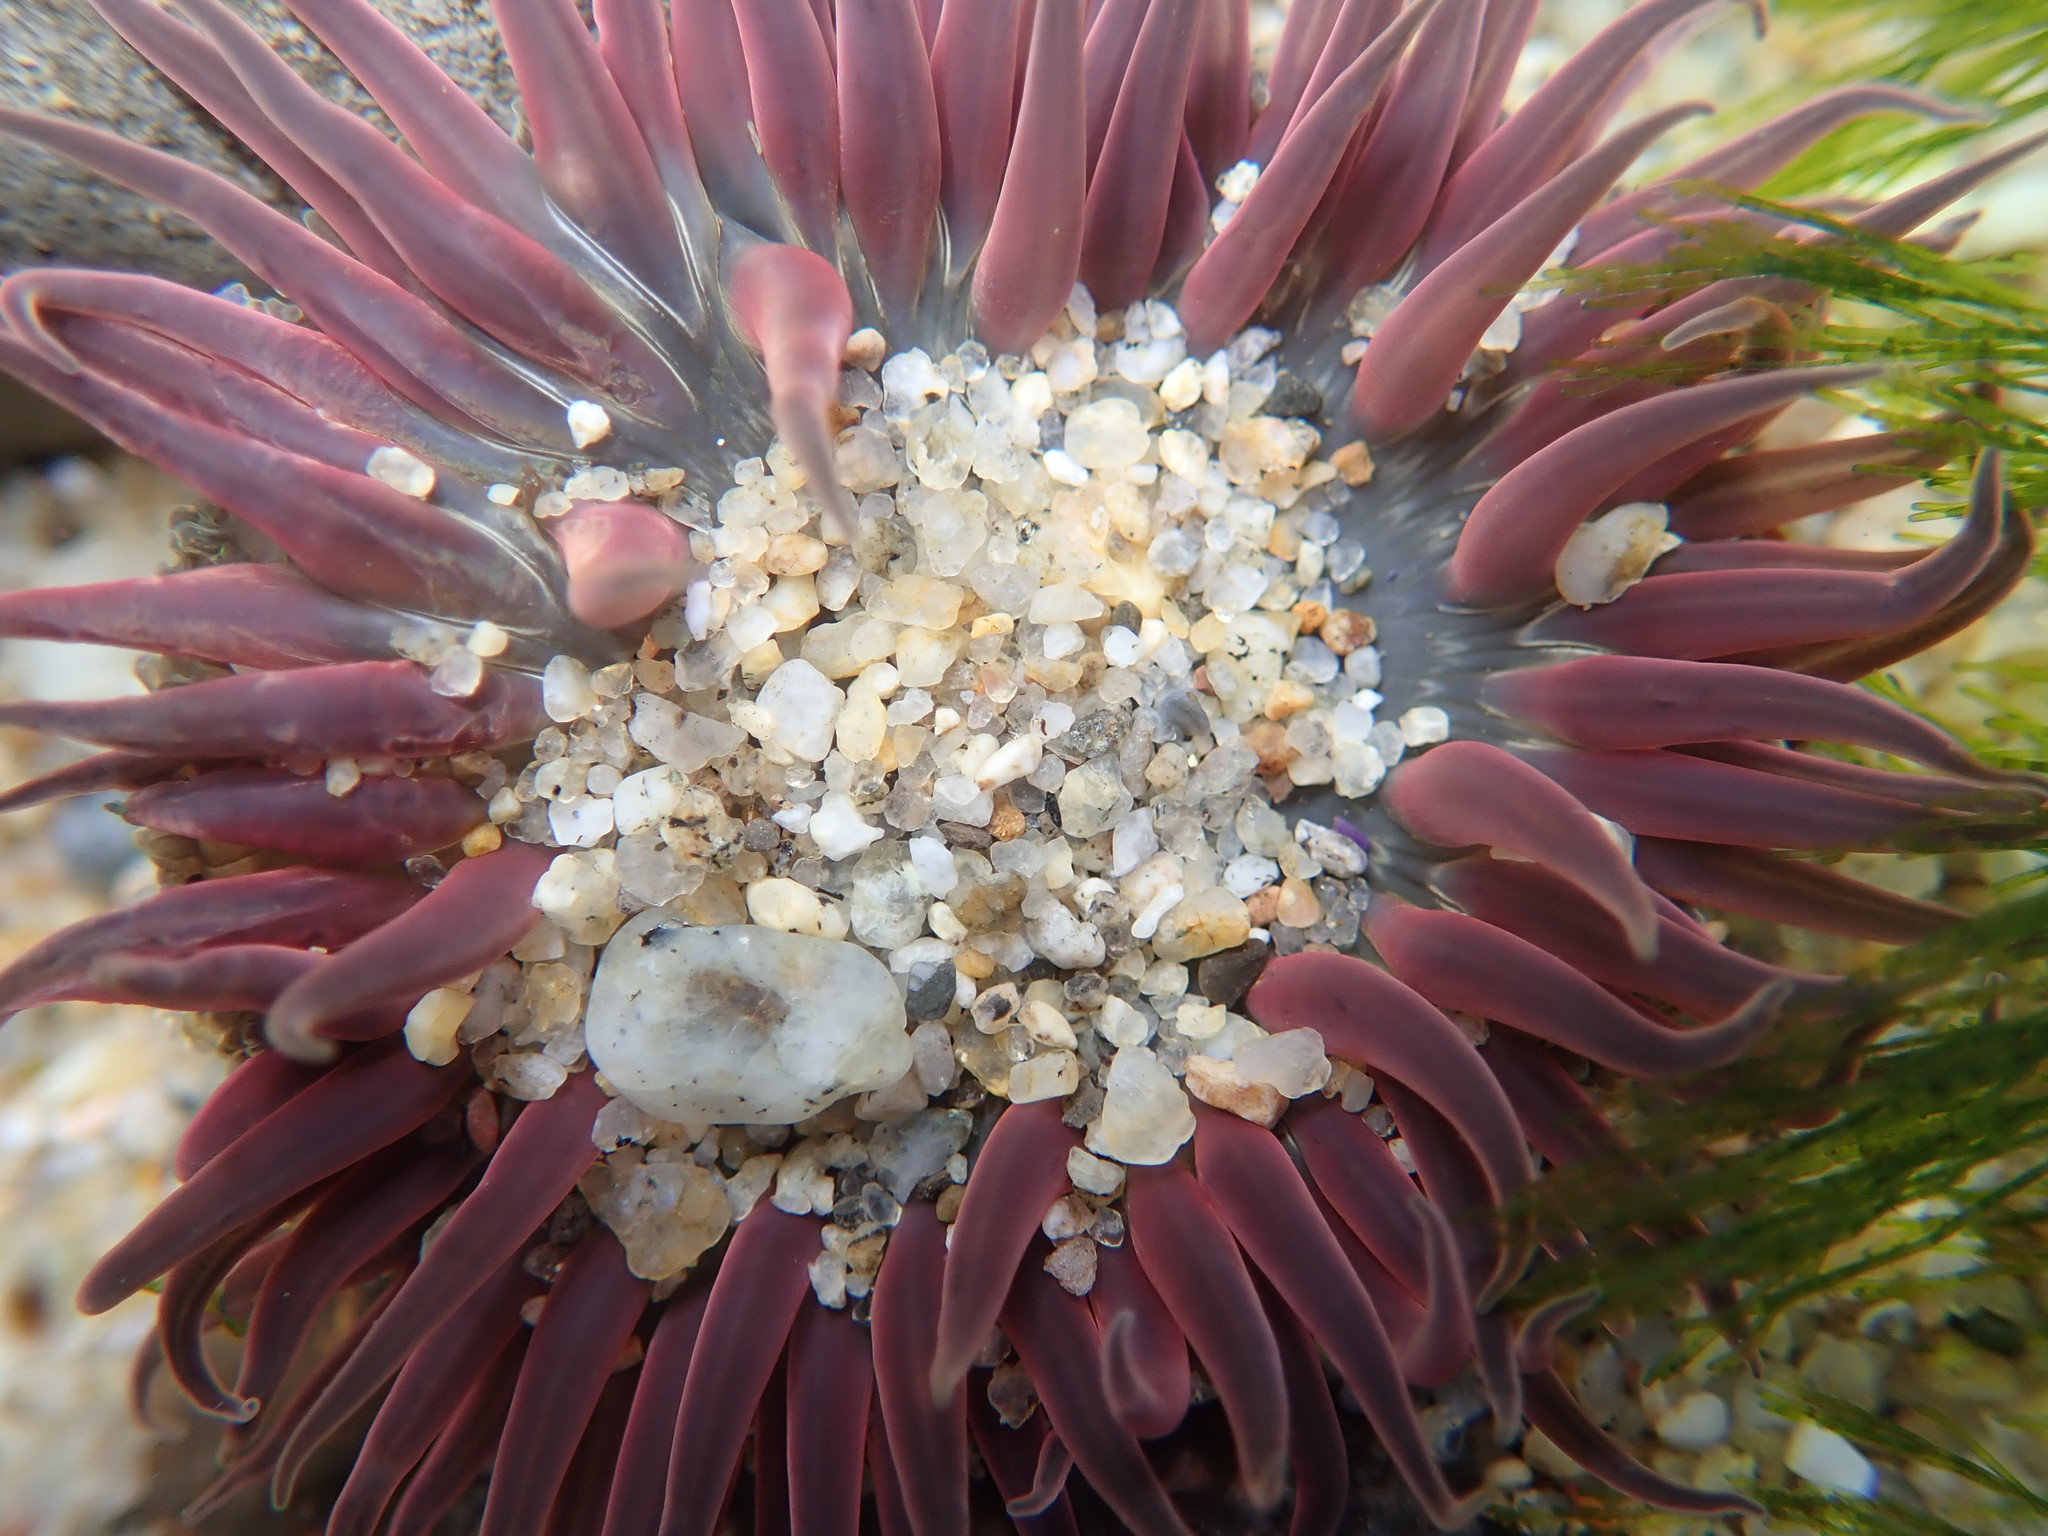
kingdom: Animalia
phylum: Cnidaria
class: Anthozoa
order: Actiniaria
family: Actiniidae
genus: Anthopleura
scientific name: Anthopleura artemisia
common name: Buried sea anemone
